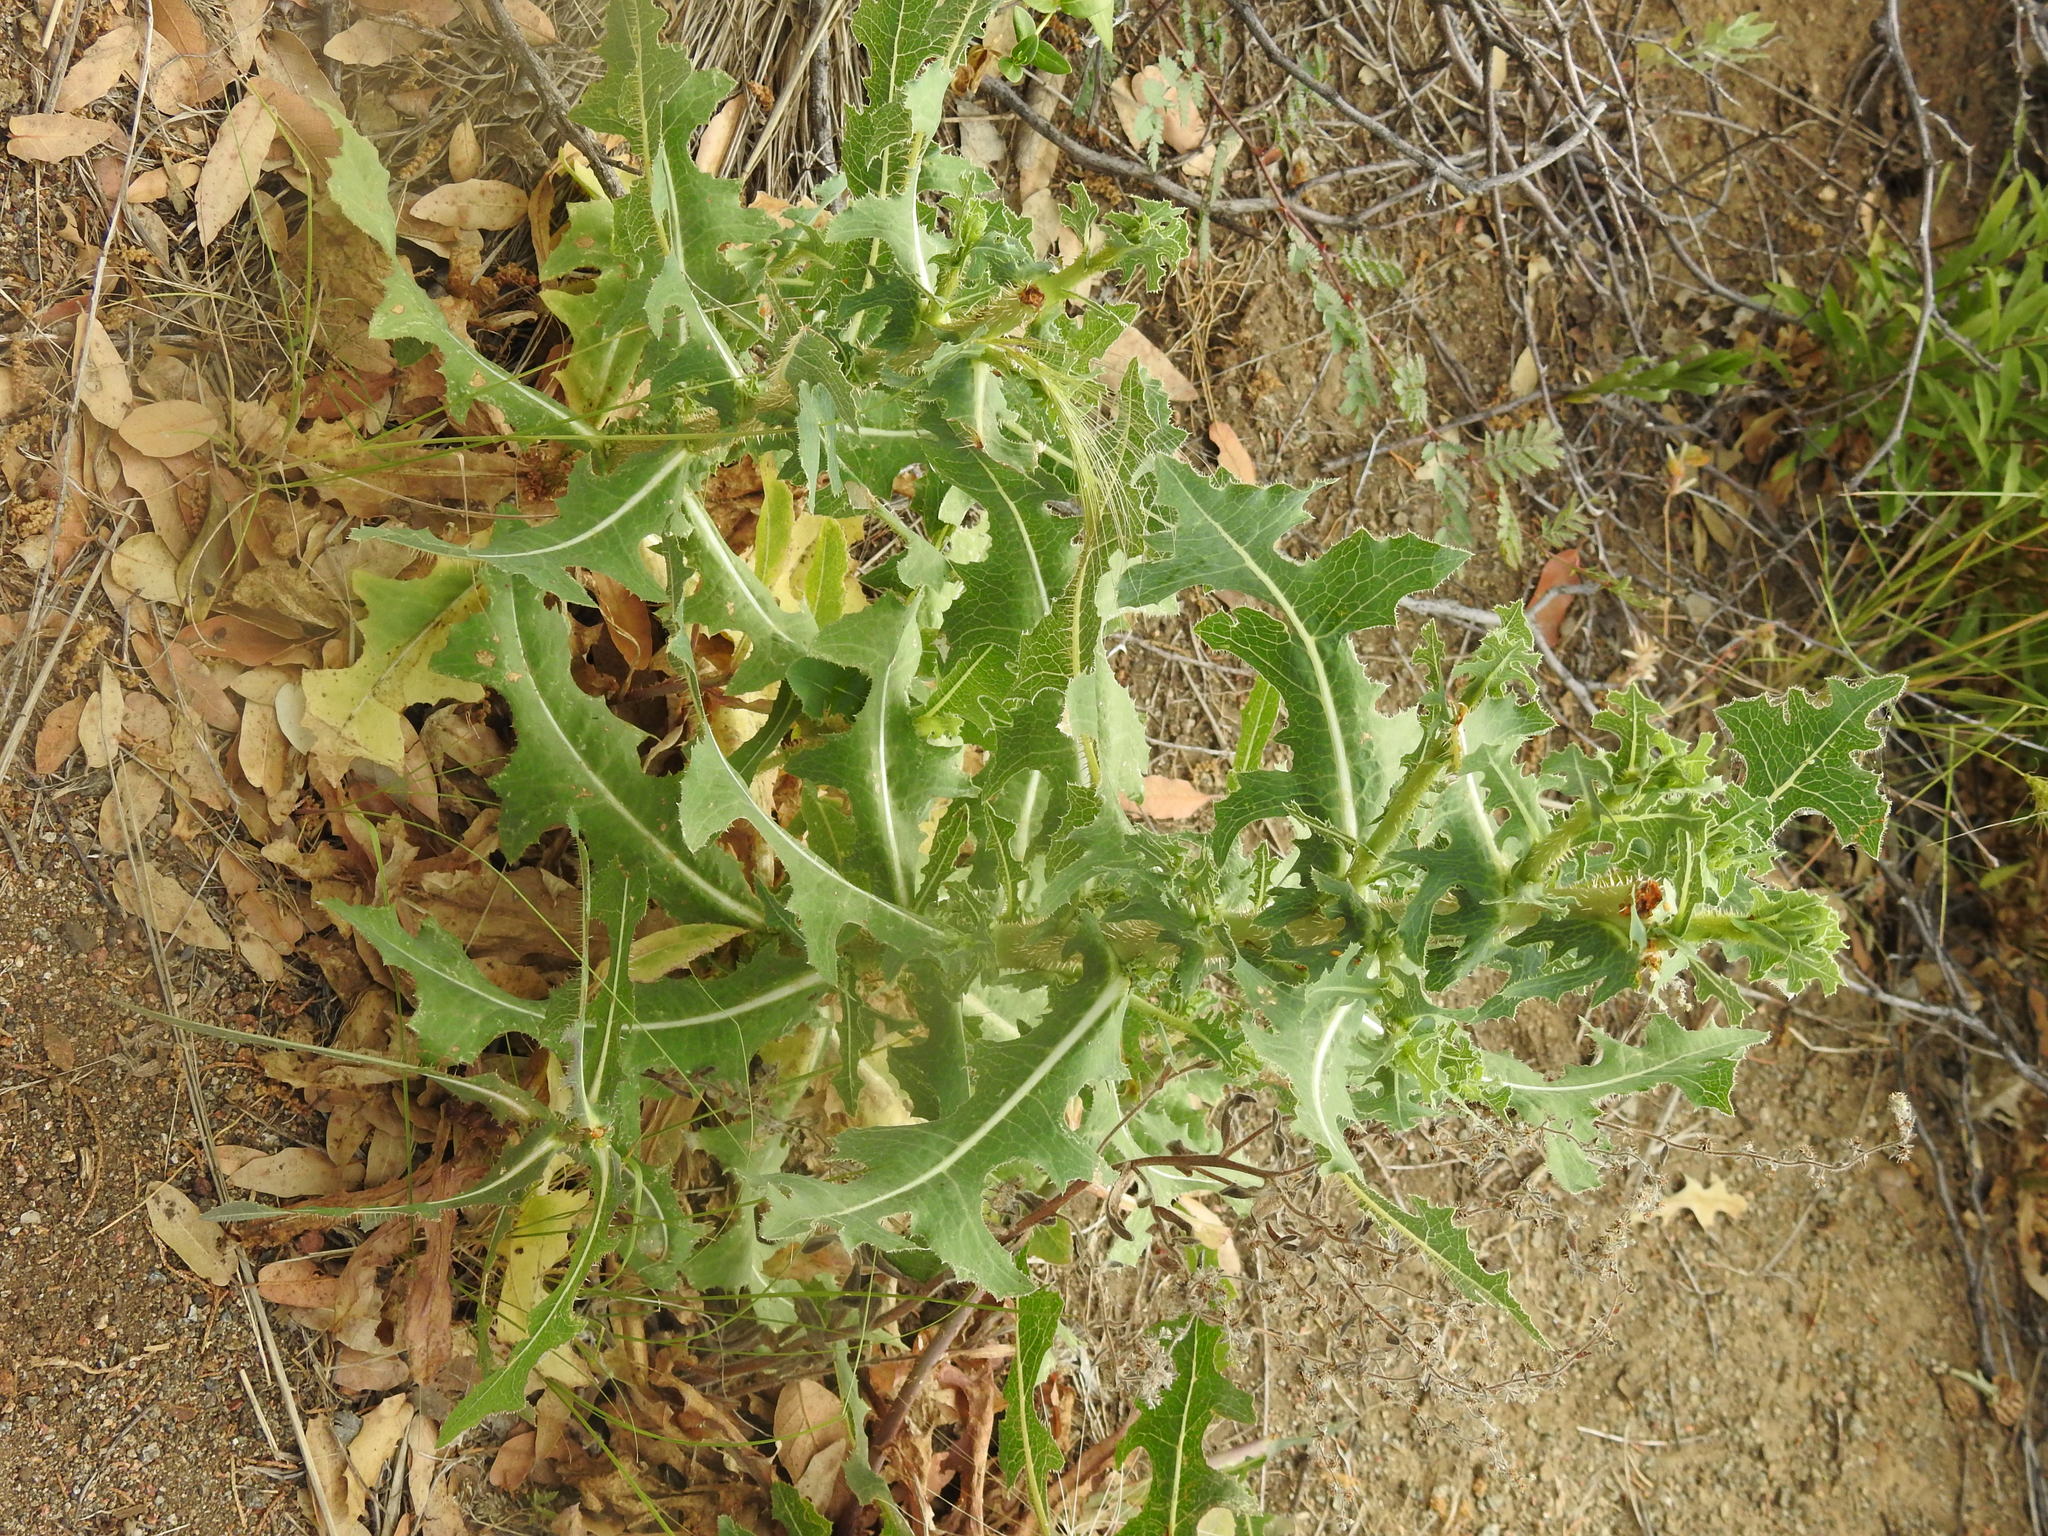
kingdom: Plantae
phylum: Tracheophyta
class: Magnoliopsida
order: Asterales
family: Asteraceae
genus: Lactuca
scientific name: Lactuca serriola
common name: Prickly lettuce
